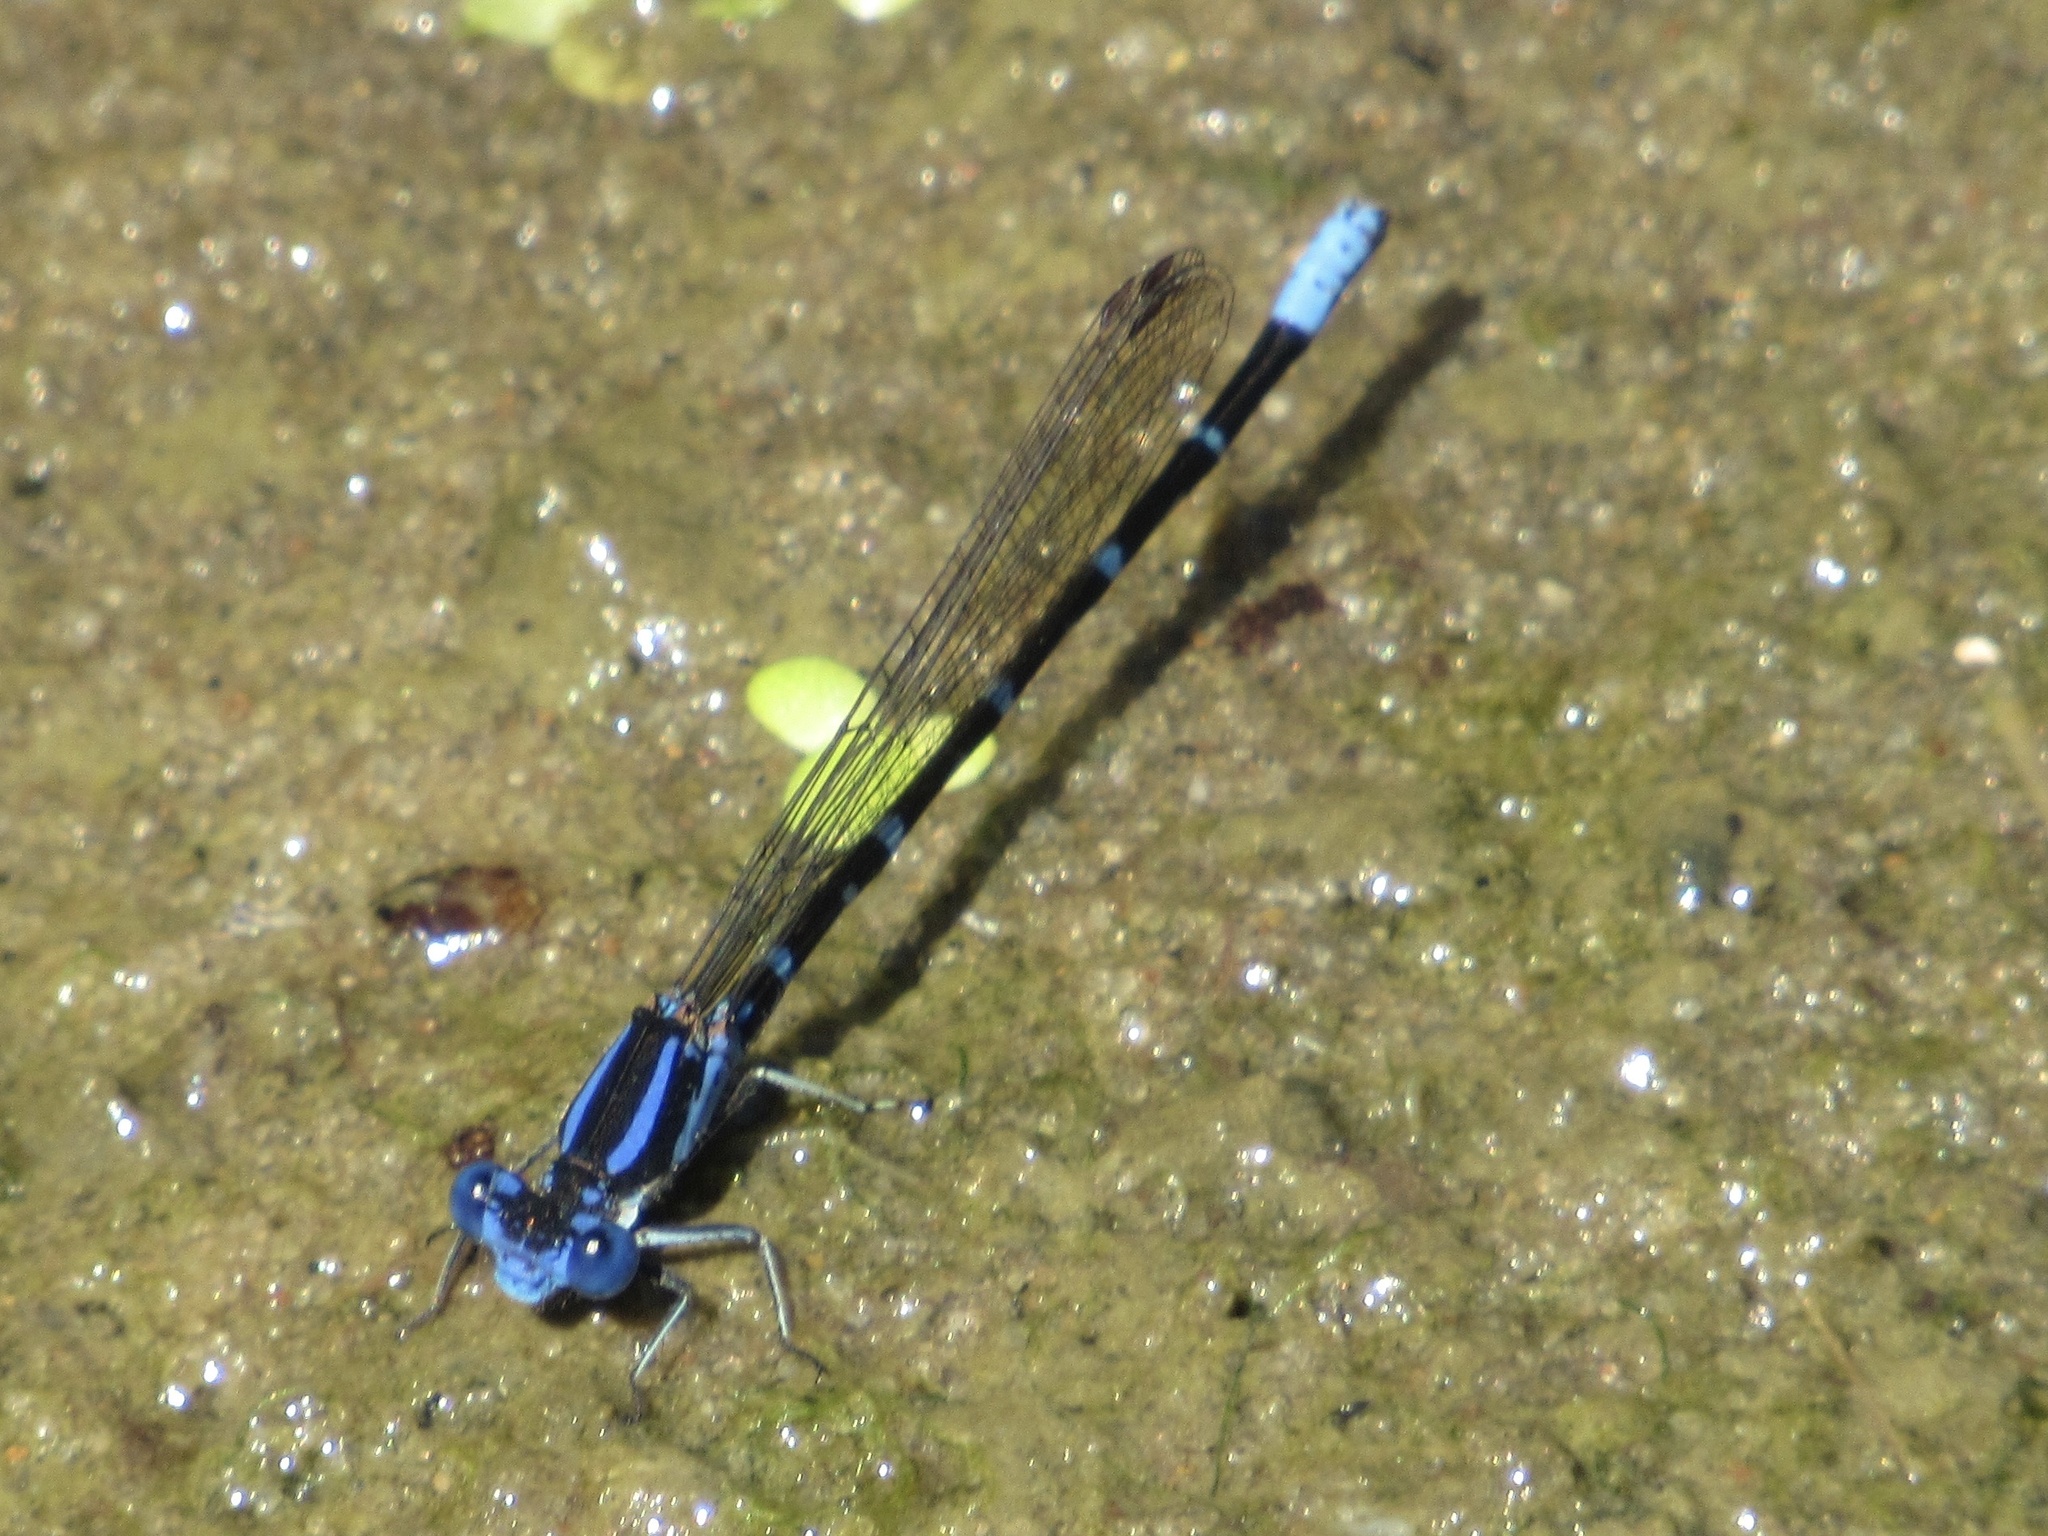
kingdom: Animalia
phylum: Arthropoda
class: Insecta
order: Odonata
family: Coenagrionidae
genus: Argia
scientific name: Argia sedula
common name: Blue-ringed dancer
